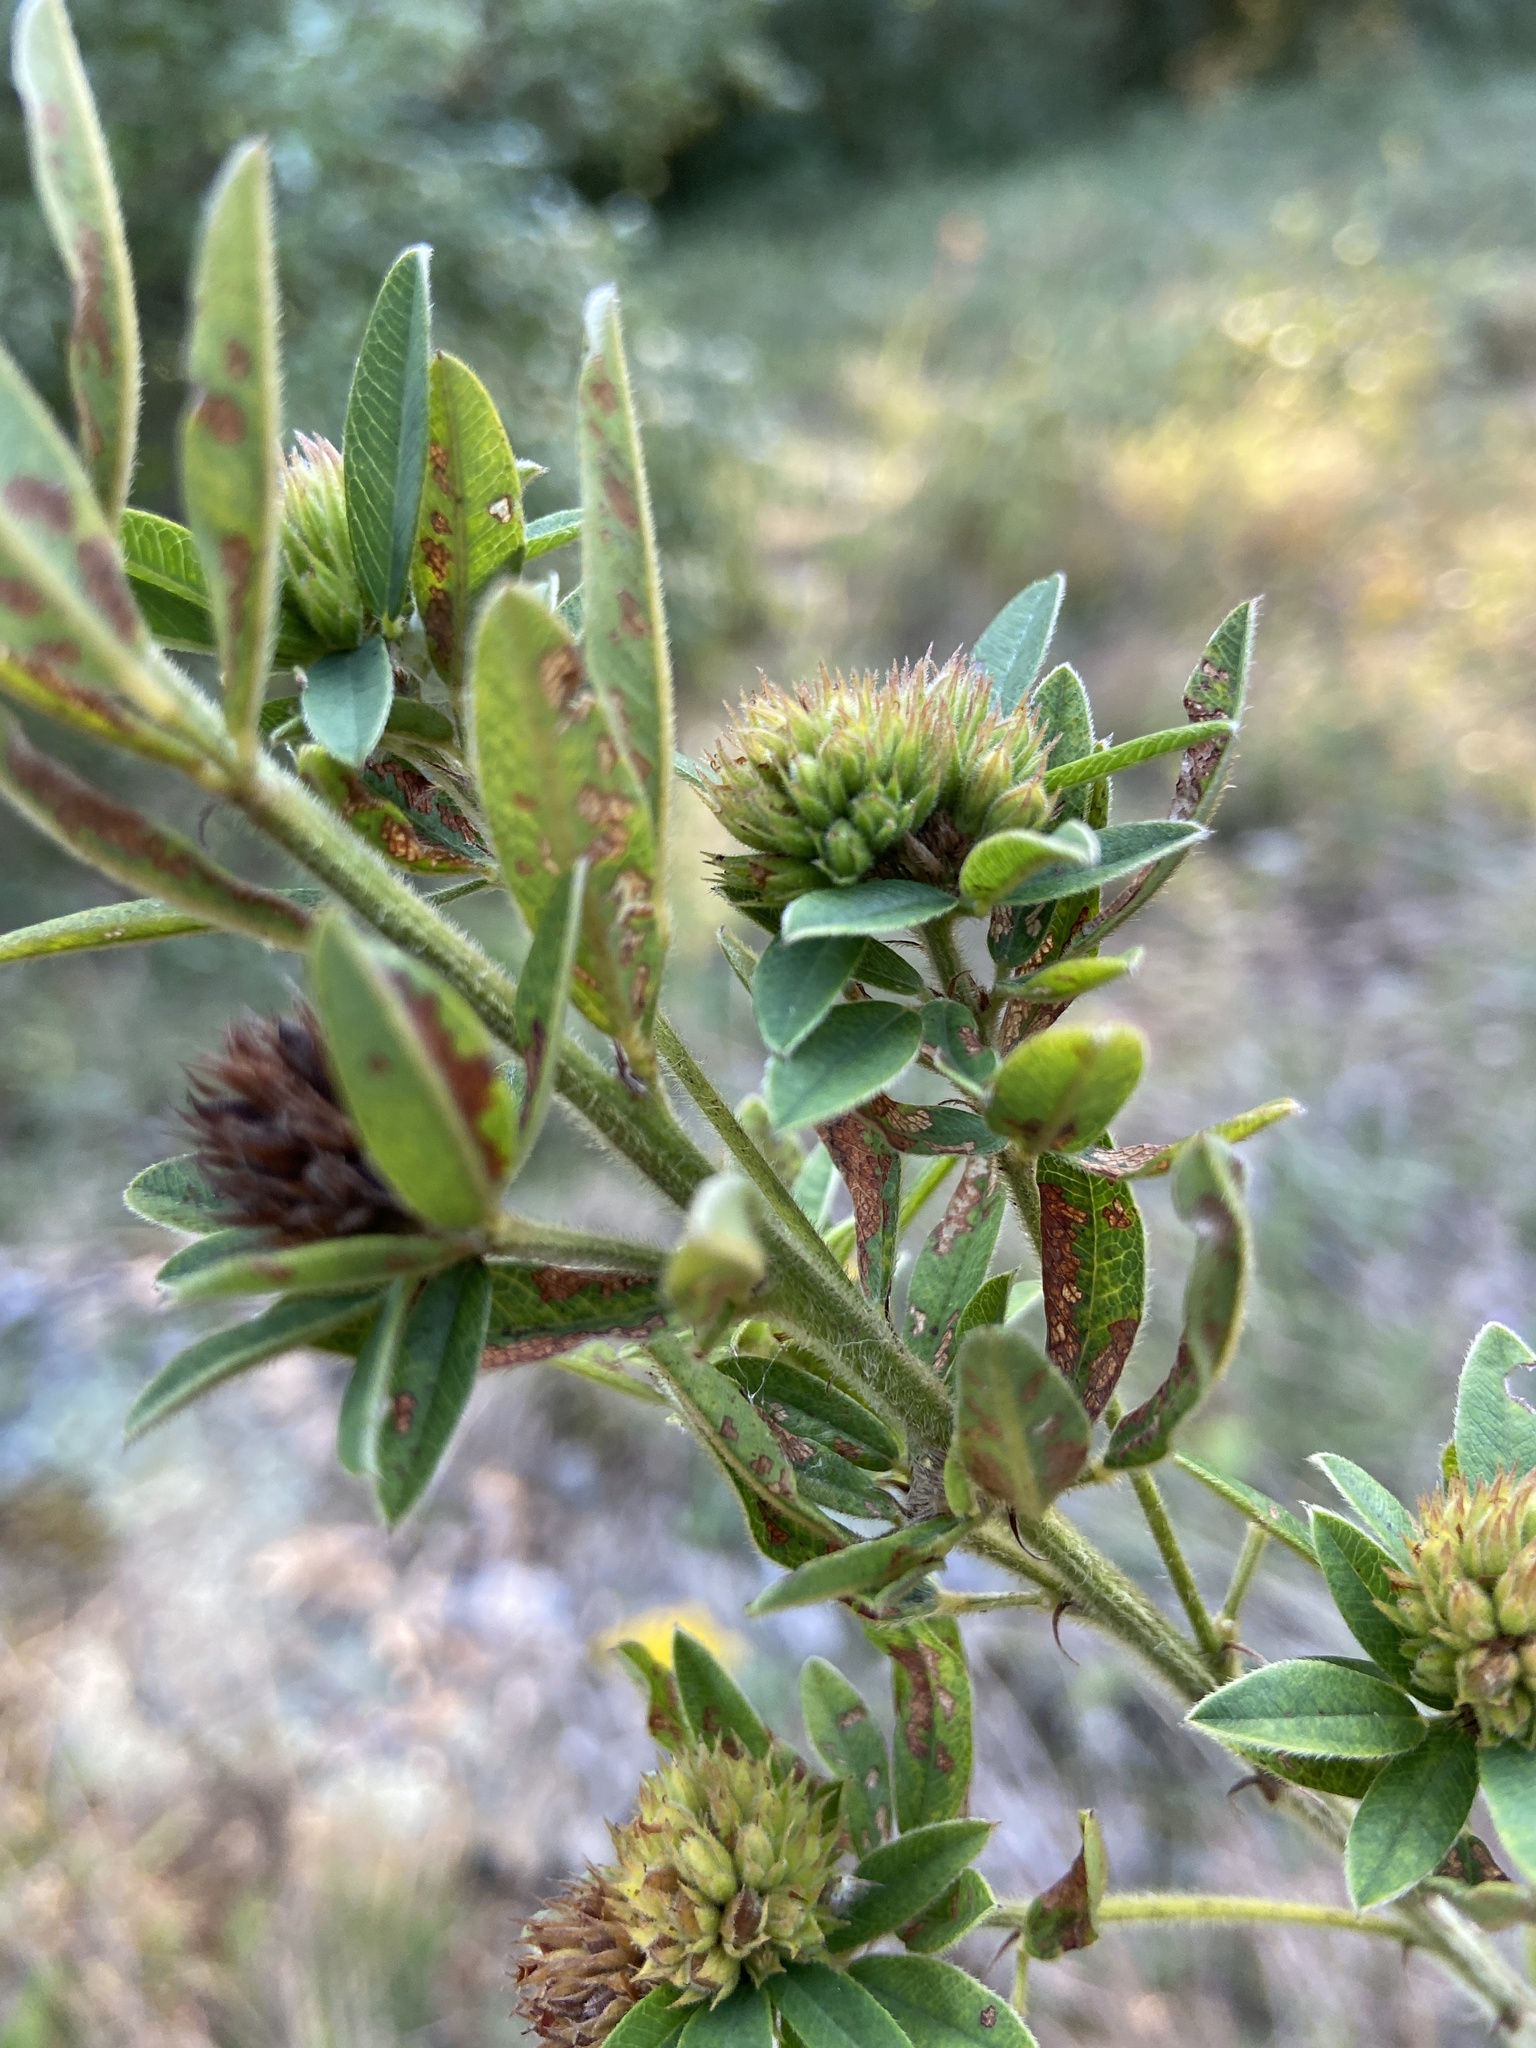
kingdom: Plantae
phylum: Tracheophyta
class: Magnoliopsida
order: Fabales
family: Fabaceae
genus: Lespedeza
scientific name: Lespedeza capitata
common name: Dusty clover
